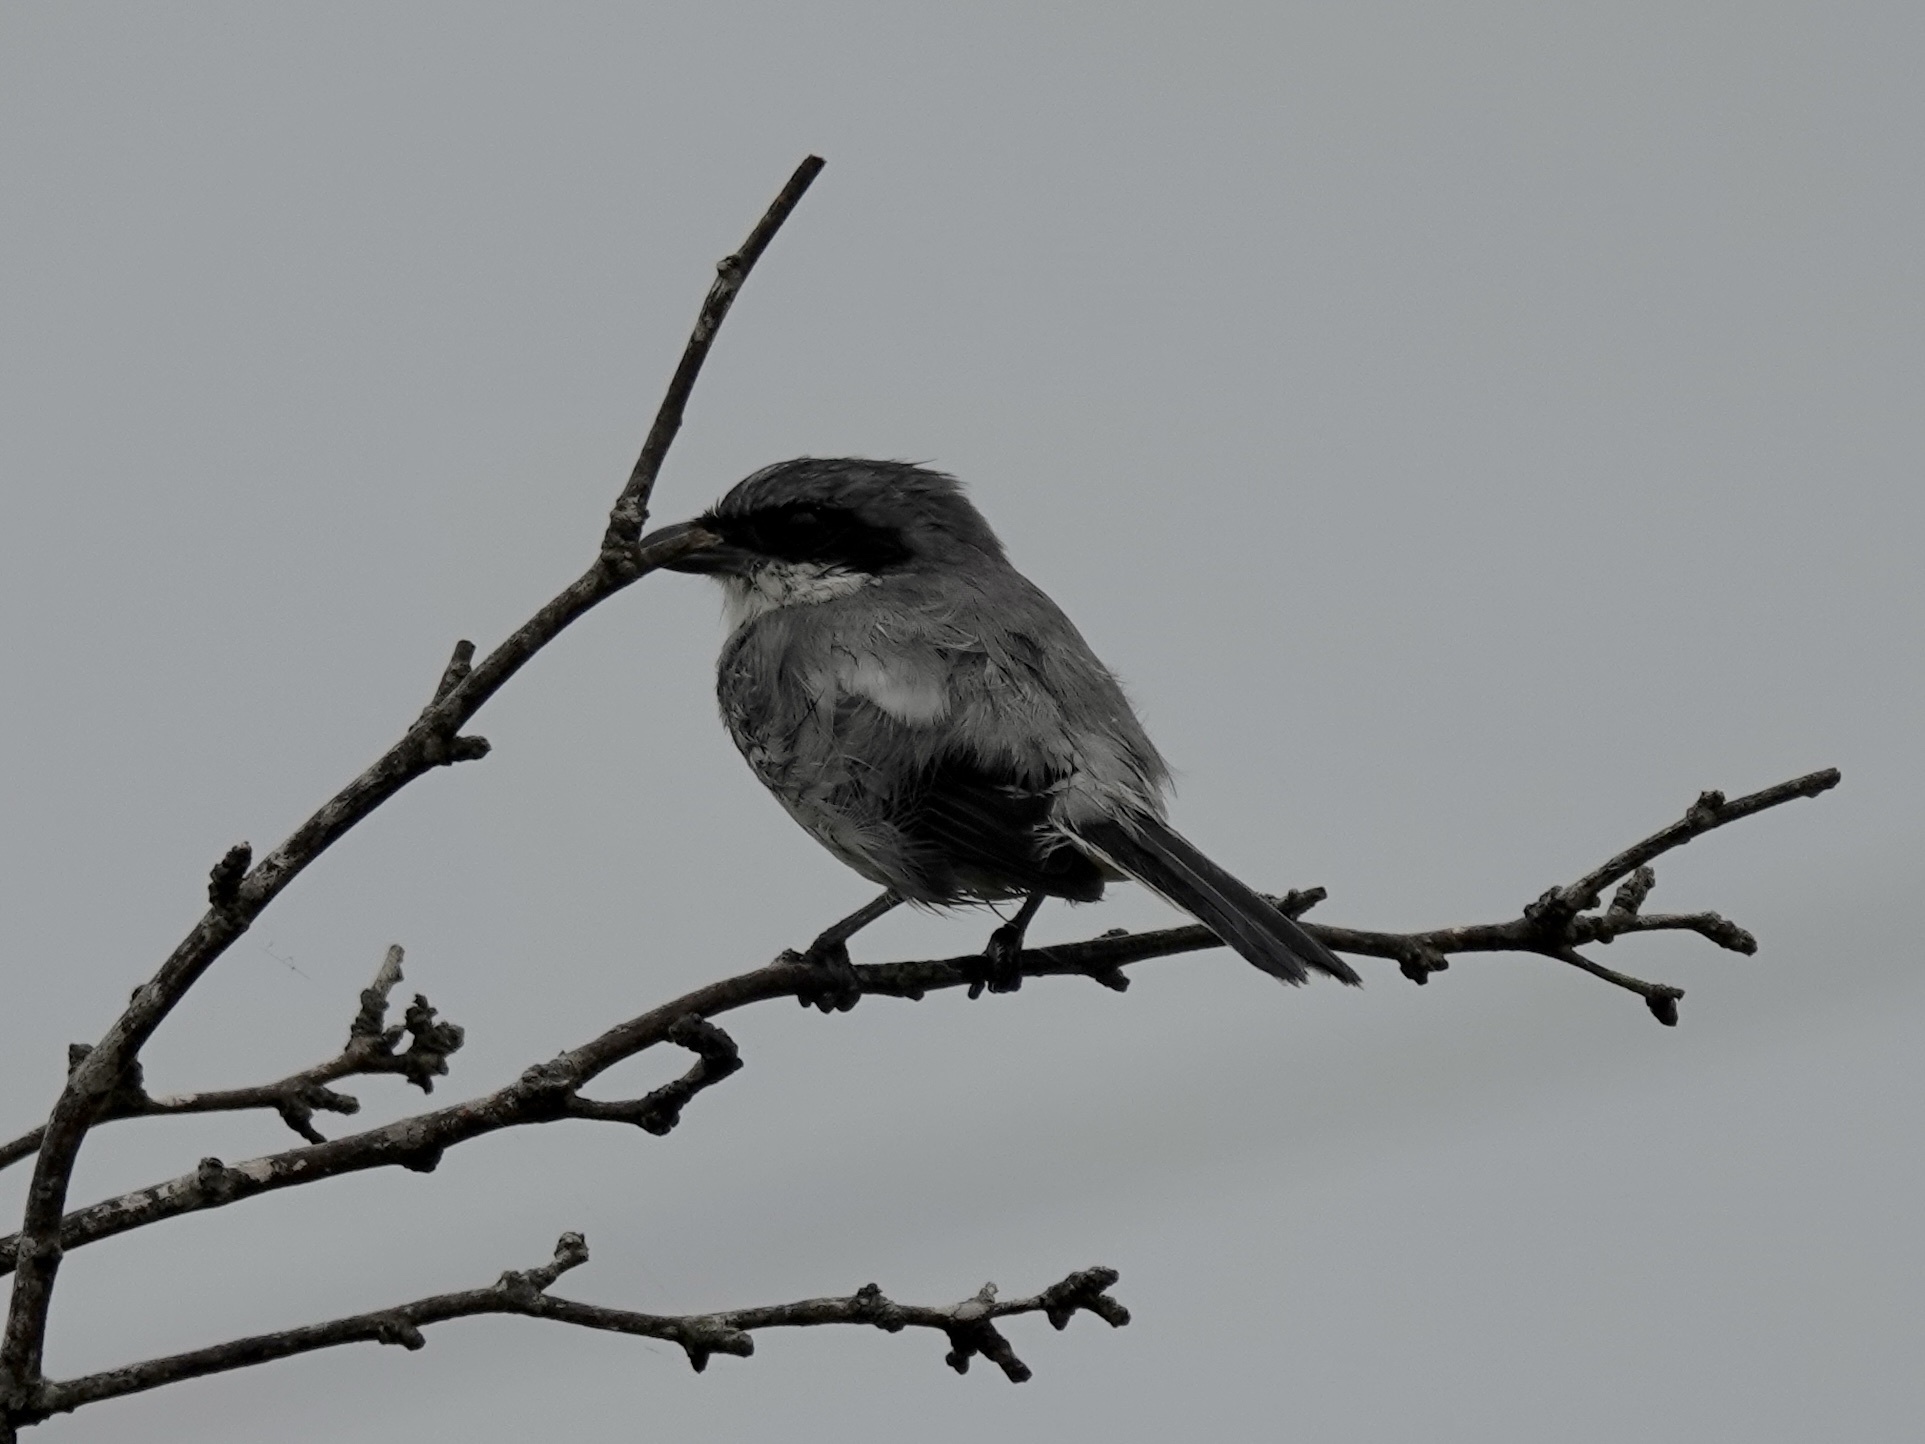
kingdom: Animalia
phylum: Chordata
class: Aves
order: Passeriformes
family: Laniidae
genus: Lanius
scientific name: Lanius ludovicianus
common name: Loggerhead shrike
